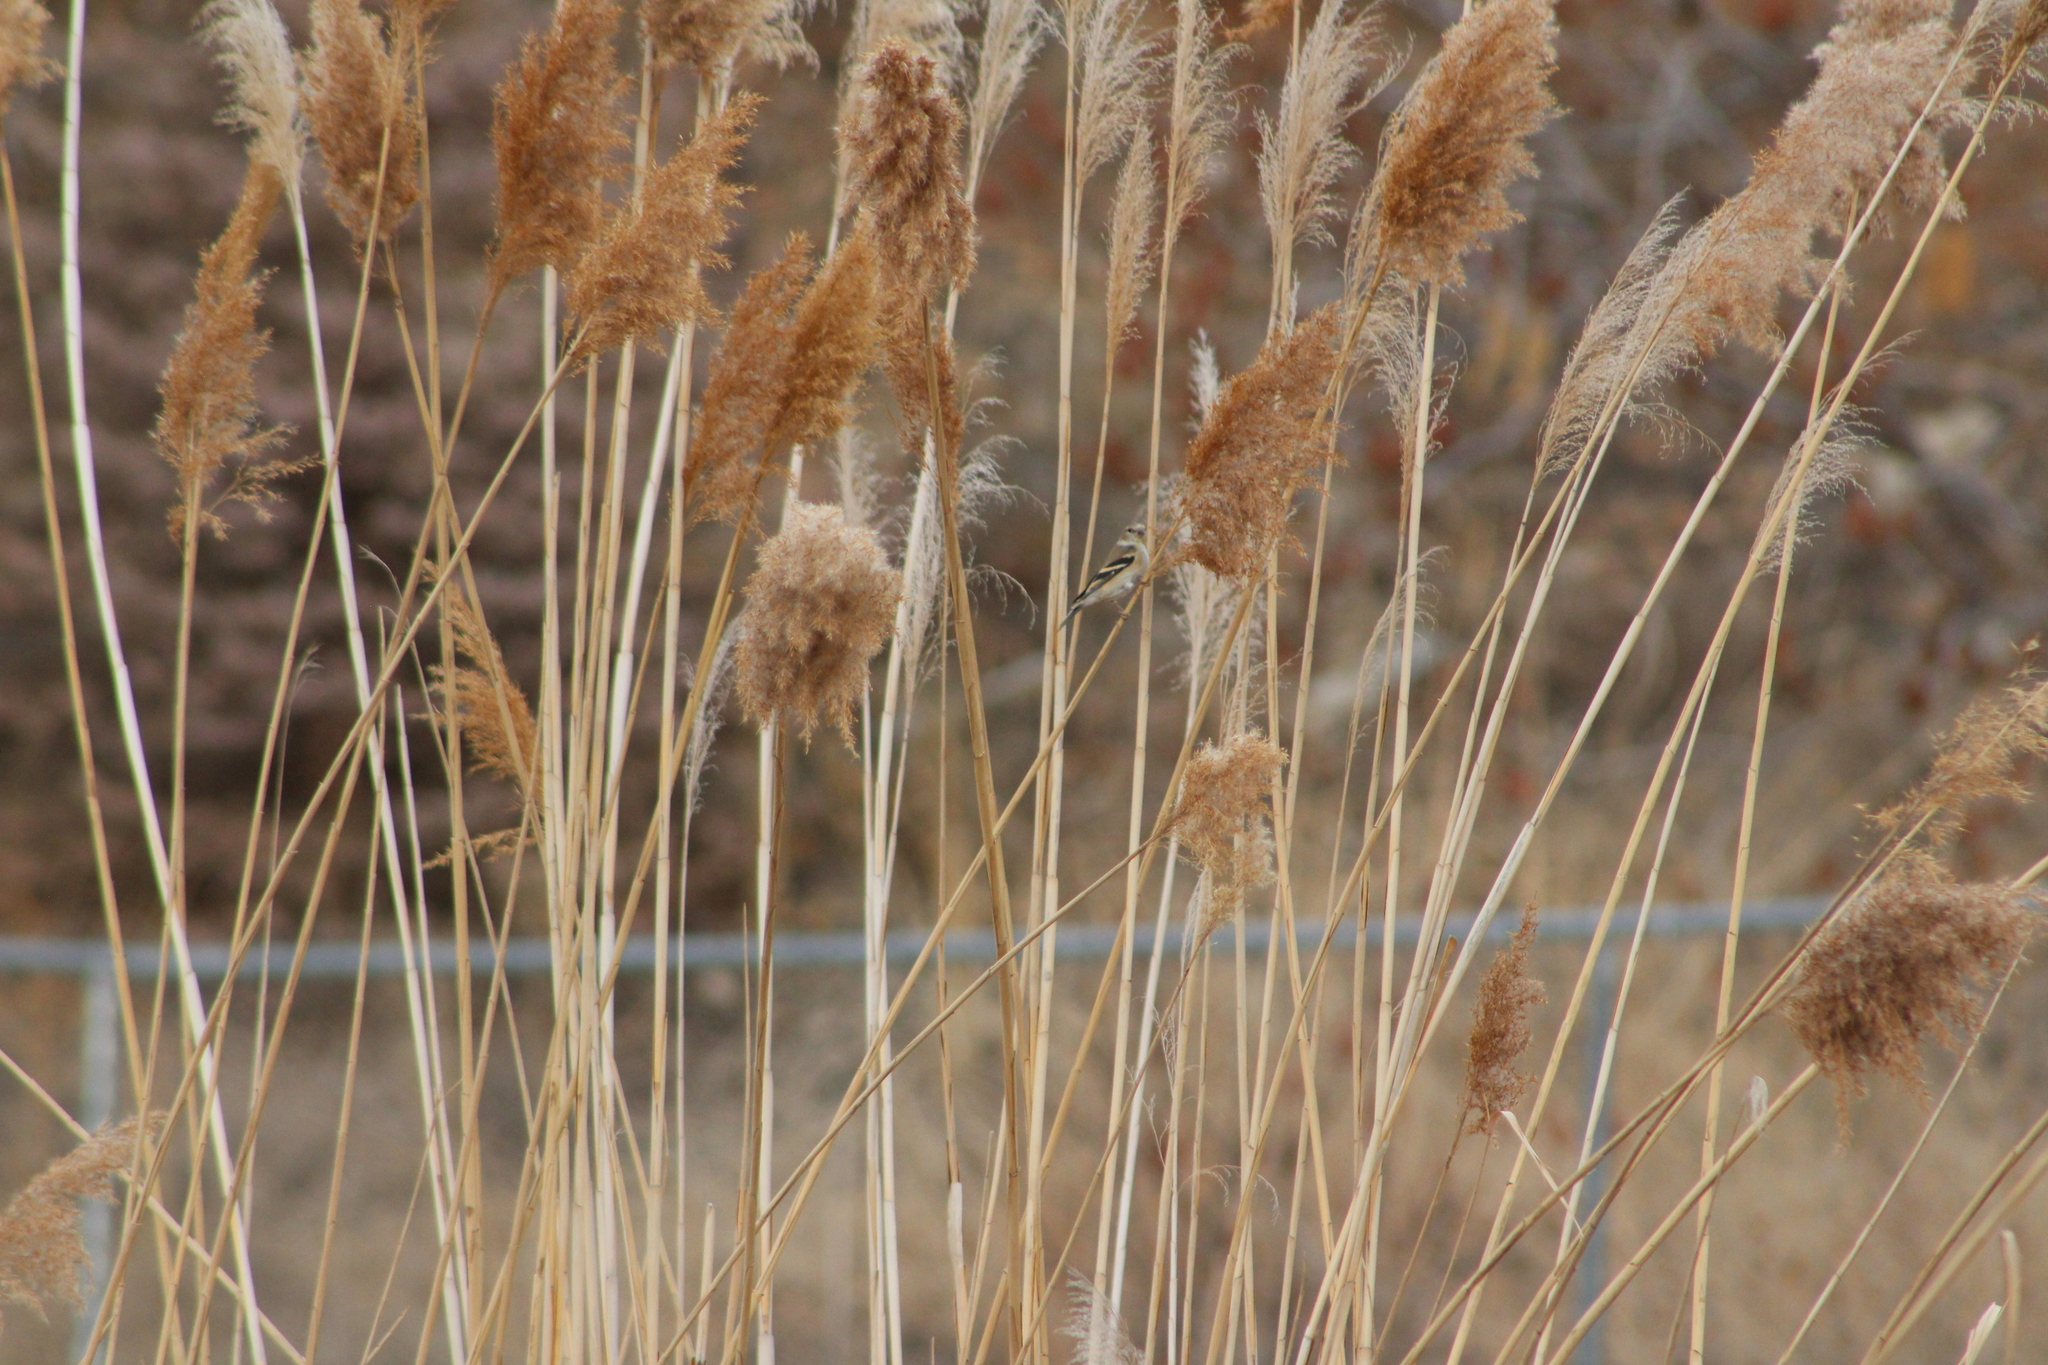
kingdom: Animalia
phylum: Chordata
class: Aves
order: Passeriformes
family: Fringillidae
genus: Spinus
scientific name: Spinus tristis
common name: American goldfinch
